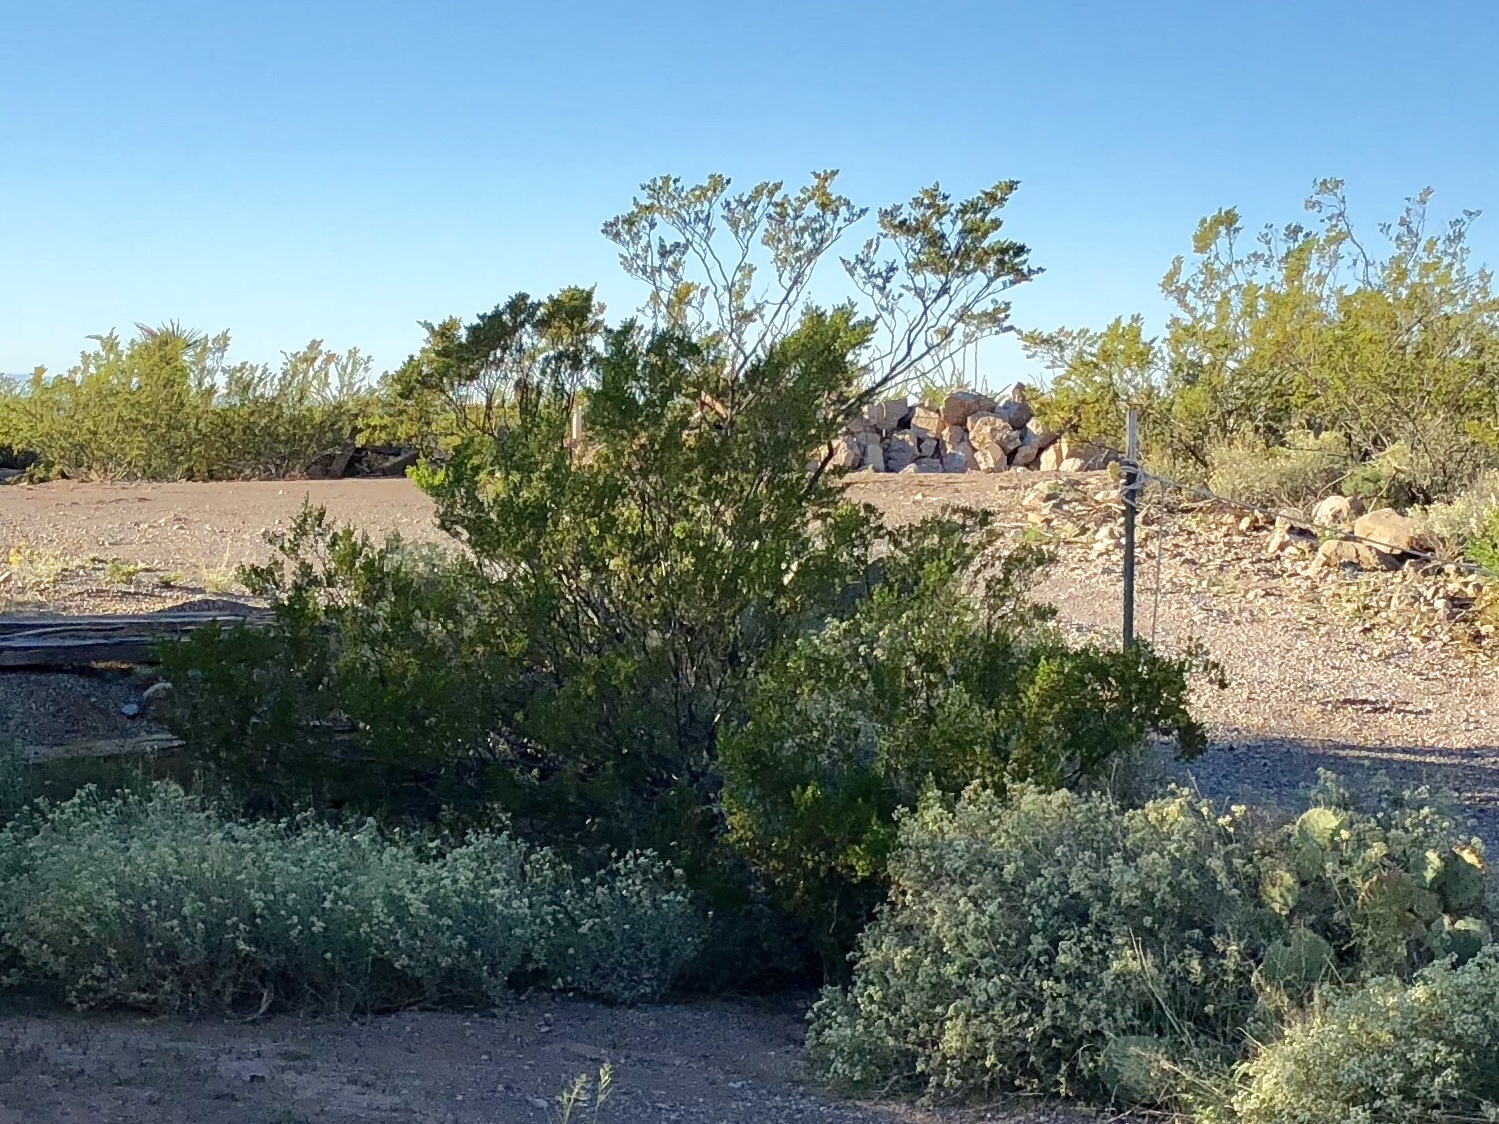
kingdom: Plantae
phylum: Tracheophyta
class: Magnoliopsida
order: Zygophyllales
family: Zygophyllaceae
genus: Larrea
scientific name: Larrea tridentata
